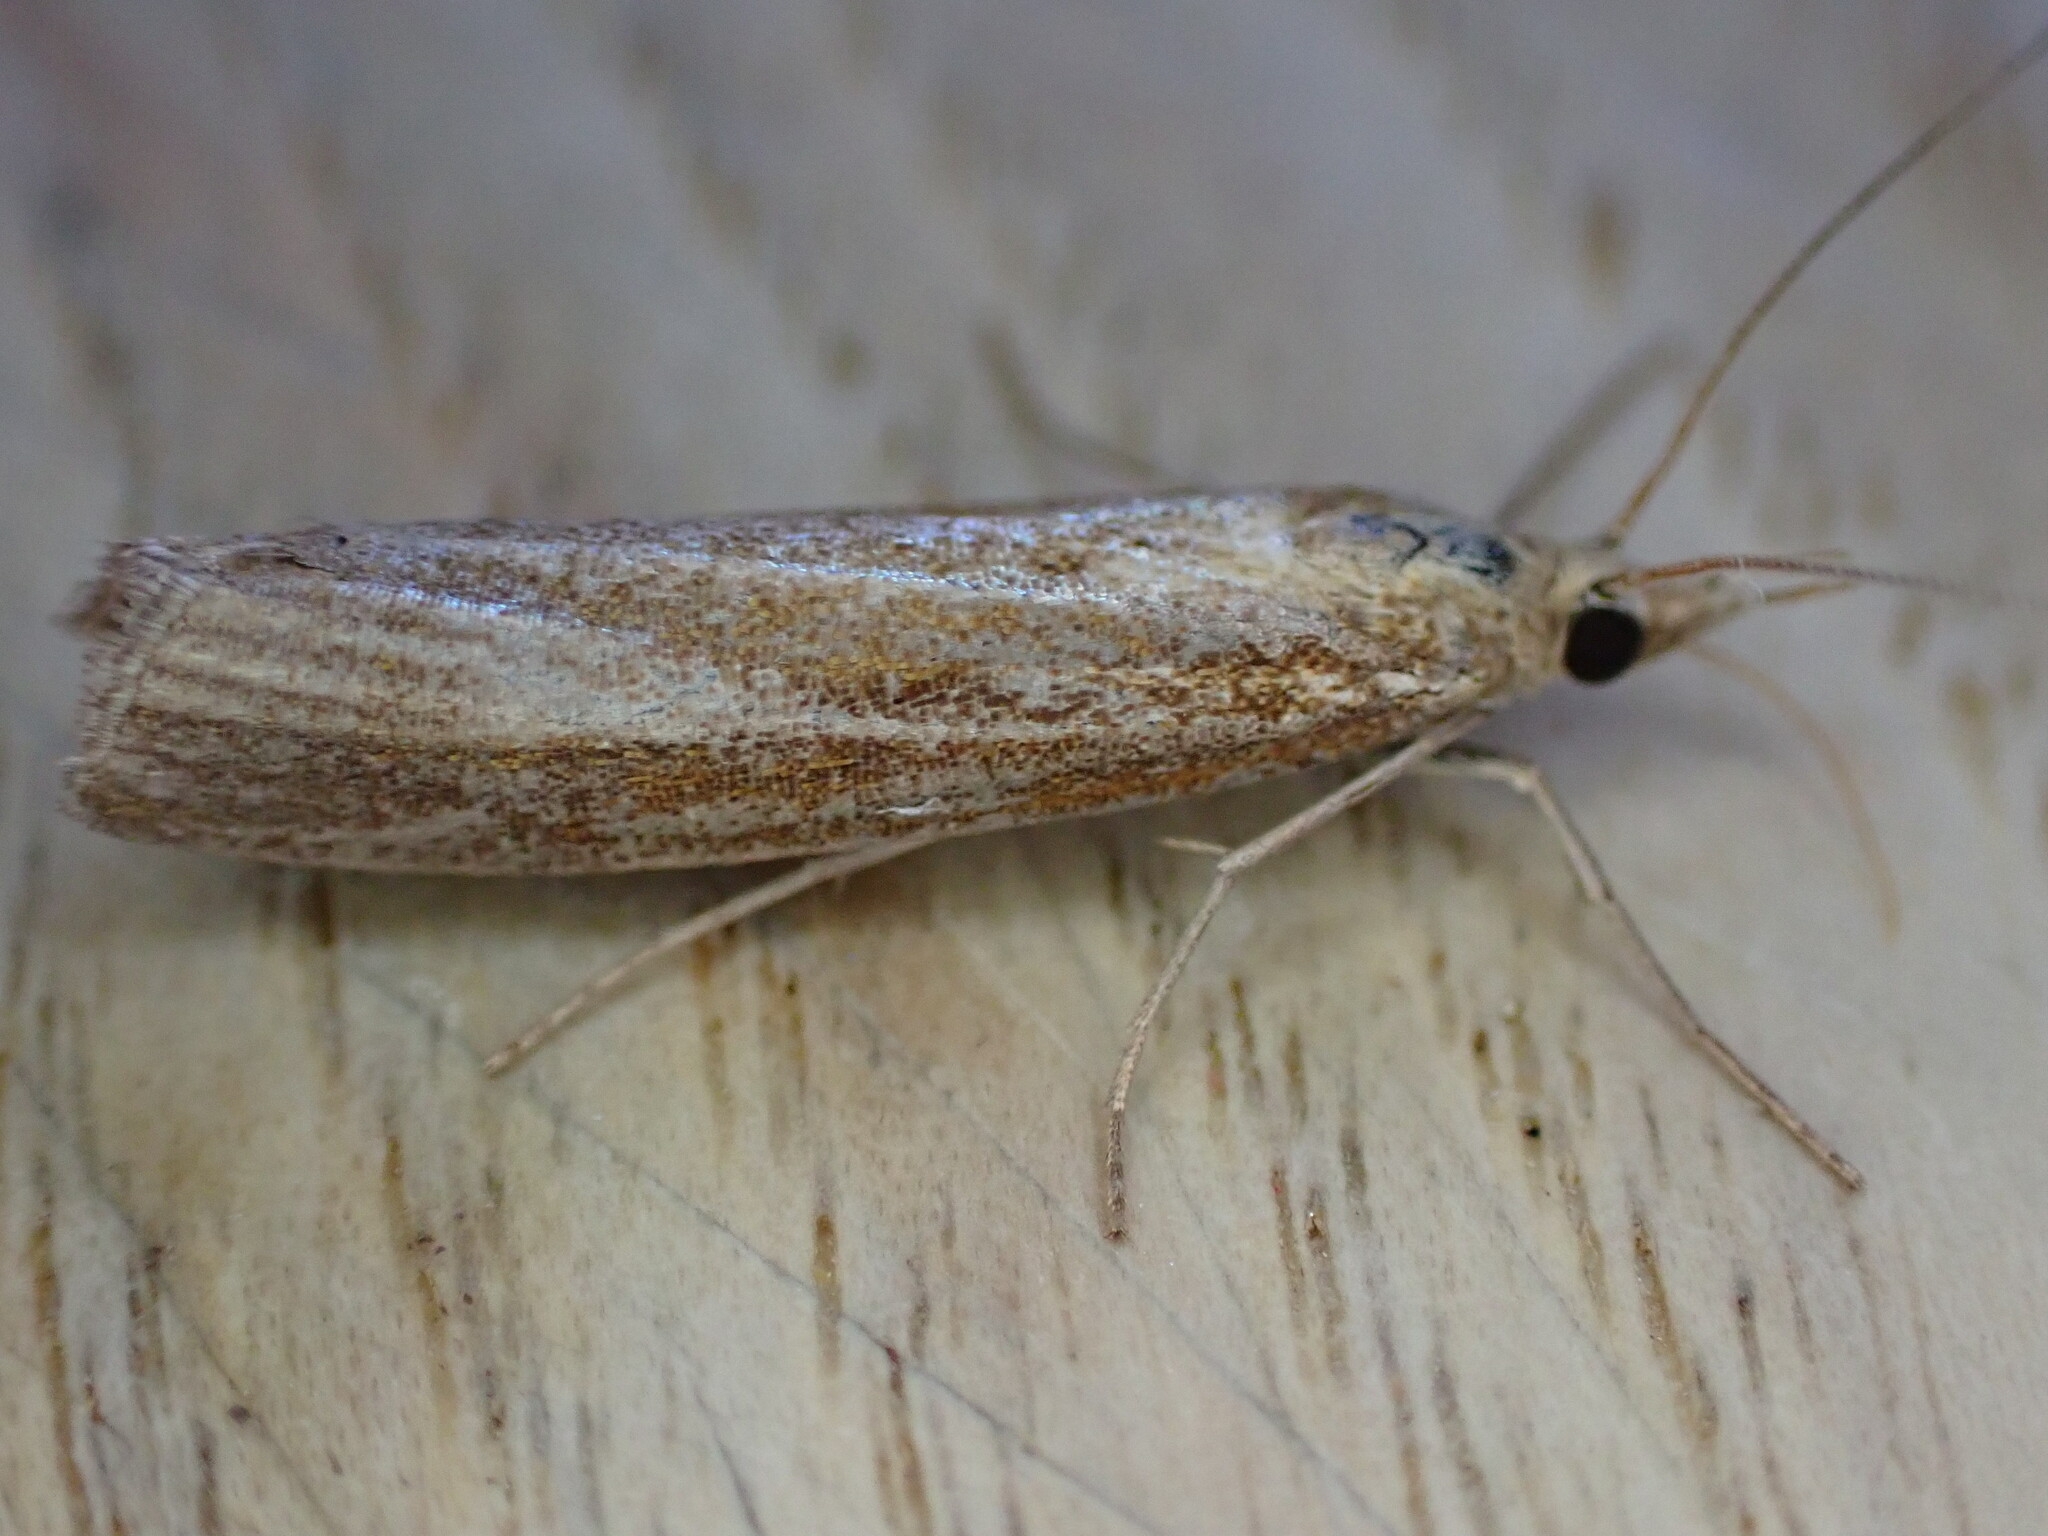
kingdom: Animalia
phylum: Arthropoda
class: Insecta
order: Lepidoptera
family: Crambidae
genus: Agriphila
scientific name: Agriphila tristellus
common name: Common grass-veneer
